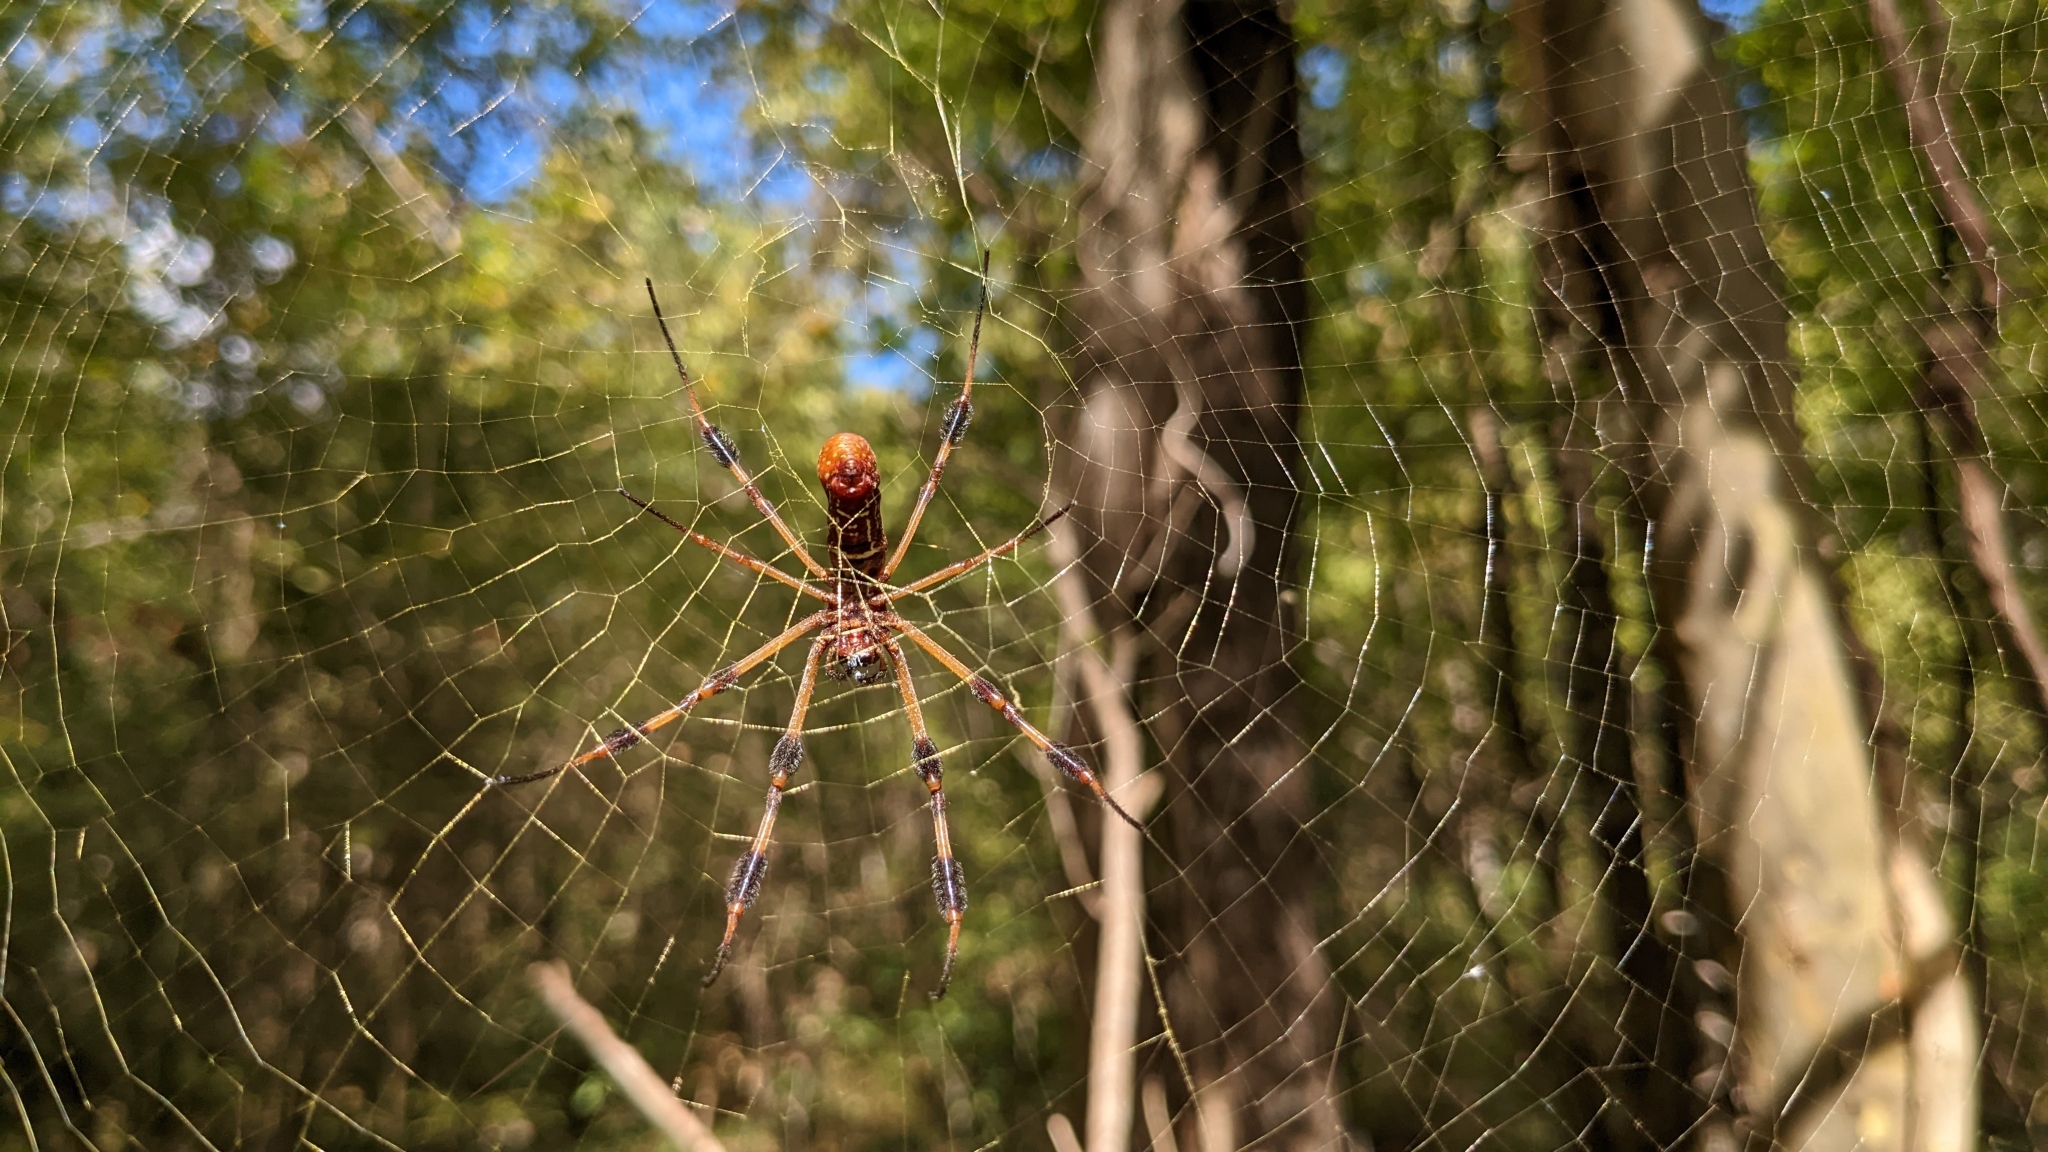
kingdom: Animalia
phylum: Arthropoda
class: Arachnida
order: Araneae
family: Araneidae
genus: Trichonephila
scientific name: Trichonephila clavipes
